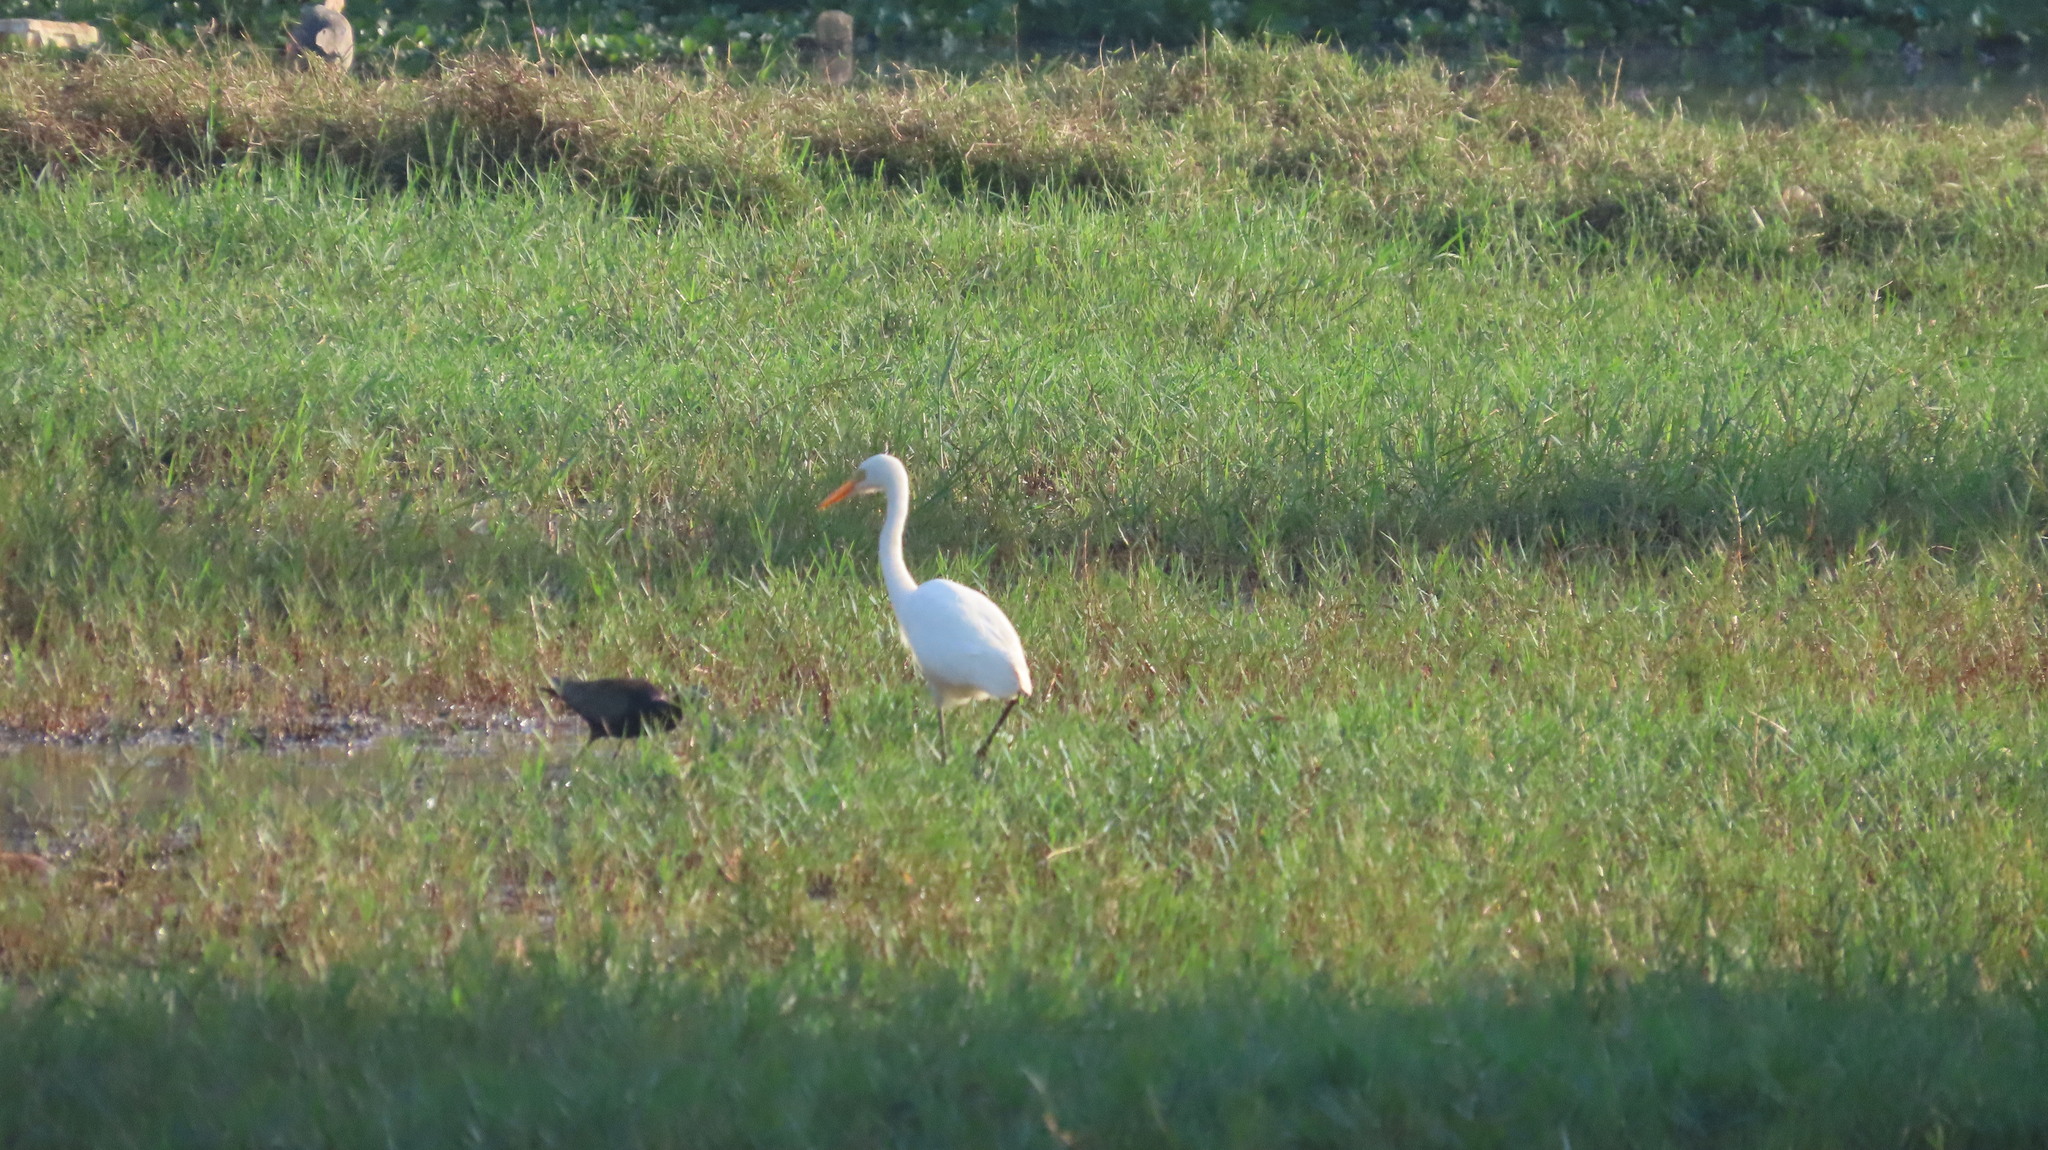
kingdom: Animalia
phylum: Chordata
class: Aves
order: Pelecaniformes
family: Ardeidae
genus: Egretta
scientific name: Egretta intermedia
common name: Intermediate egret
